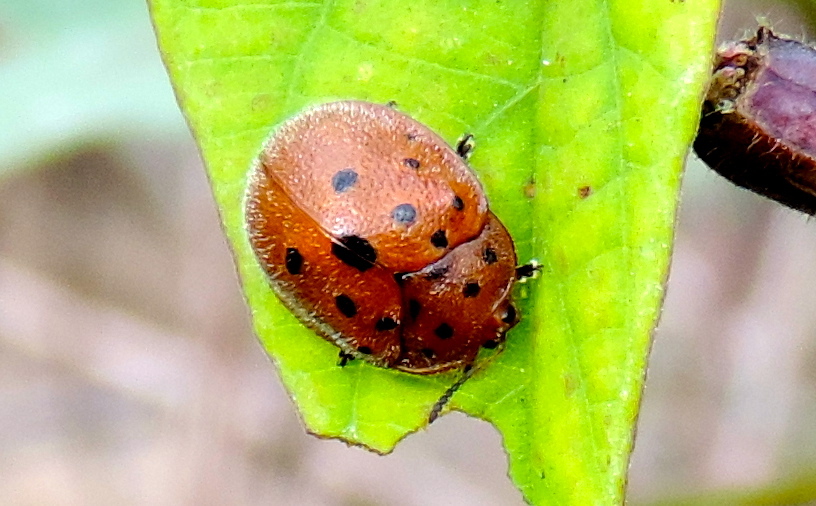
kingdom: Animalia
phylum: Arthropoda
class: Insecta
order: Coleoptera
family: Chrysomelidae
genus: Chelymorpha
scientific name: Chelymorpha
